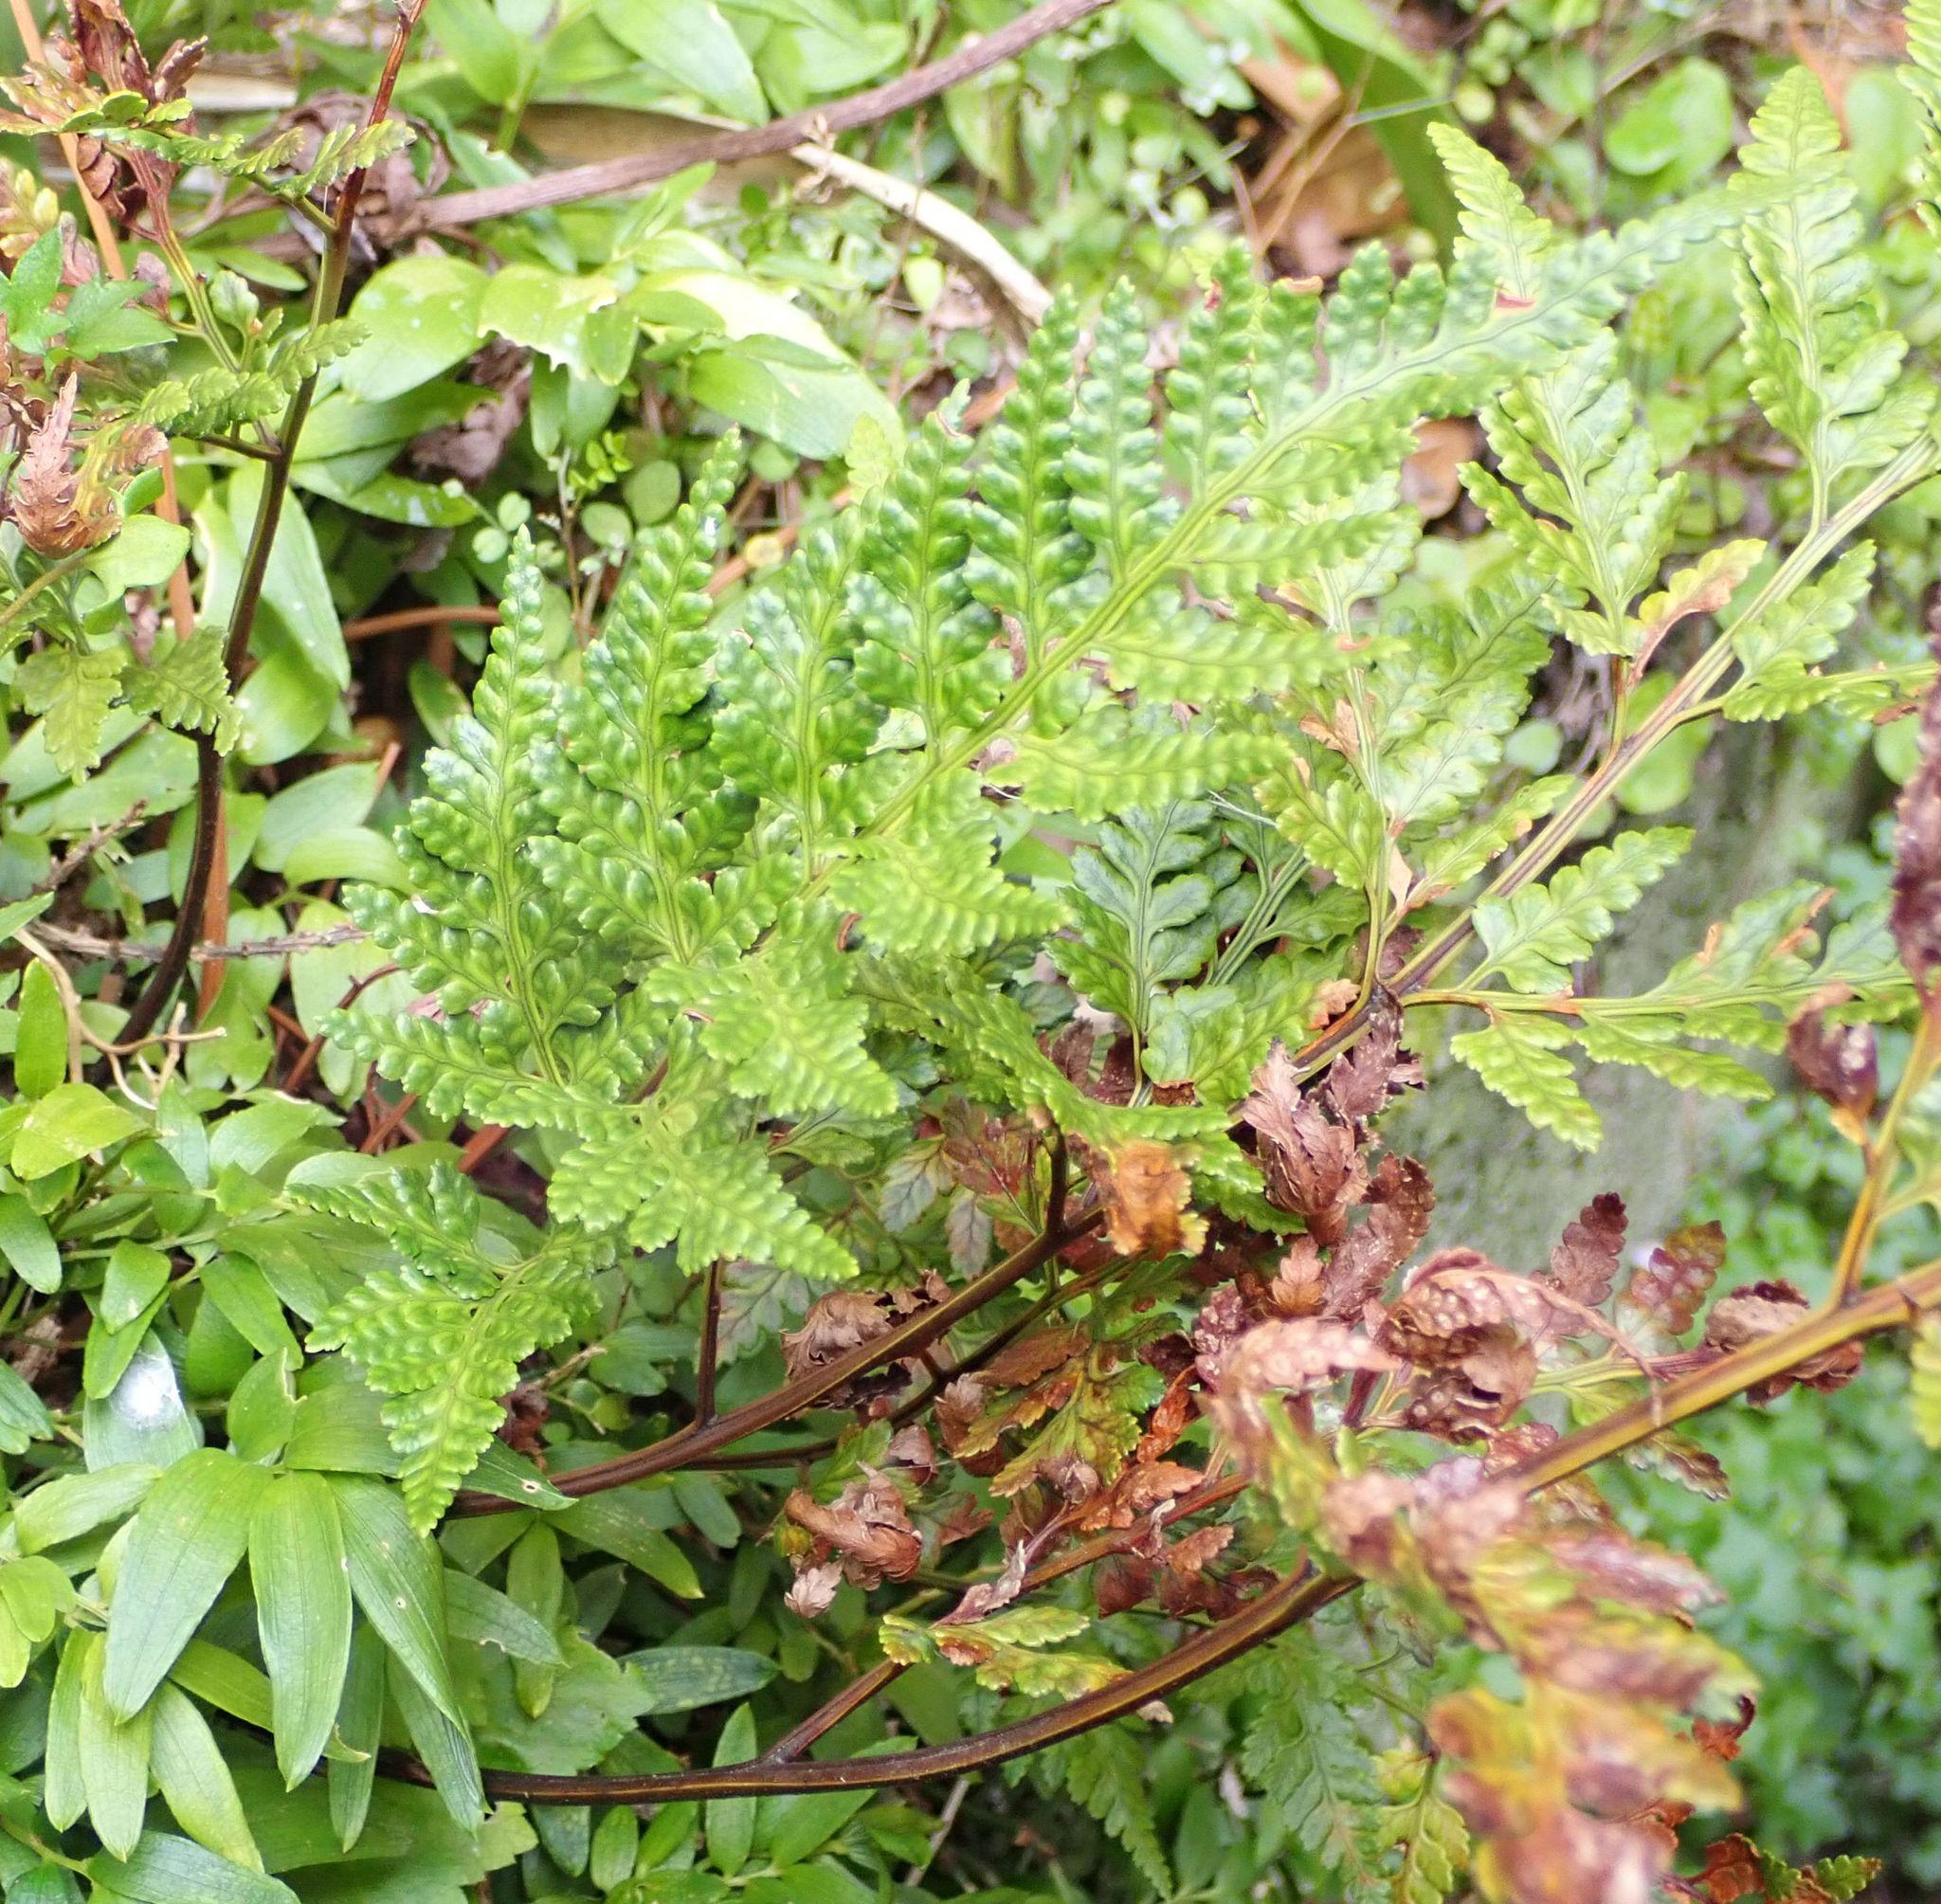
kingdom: Plantae
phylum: Tracheophyta
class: Polypodiopsida
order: Polypodiales
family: Dryopteridaceae
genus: Rumohra
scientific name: Rumohra adiantiformis
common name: Leather fern
